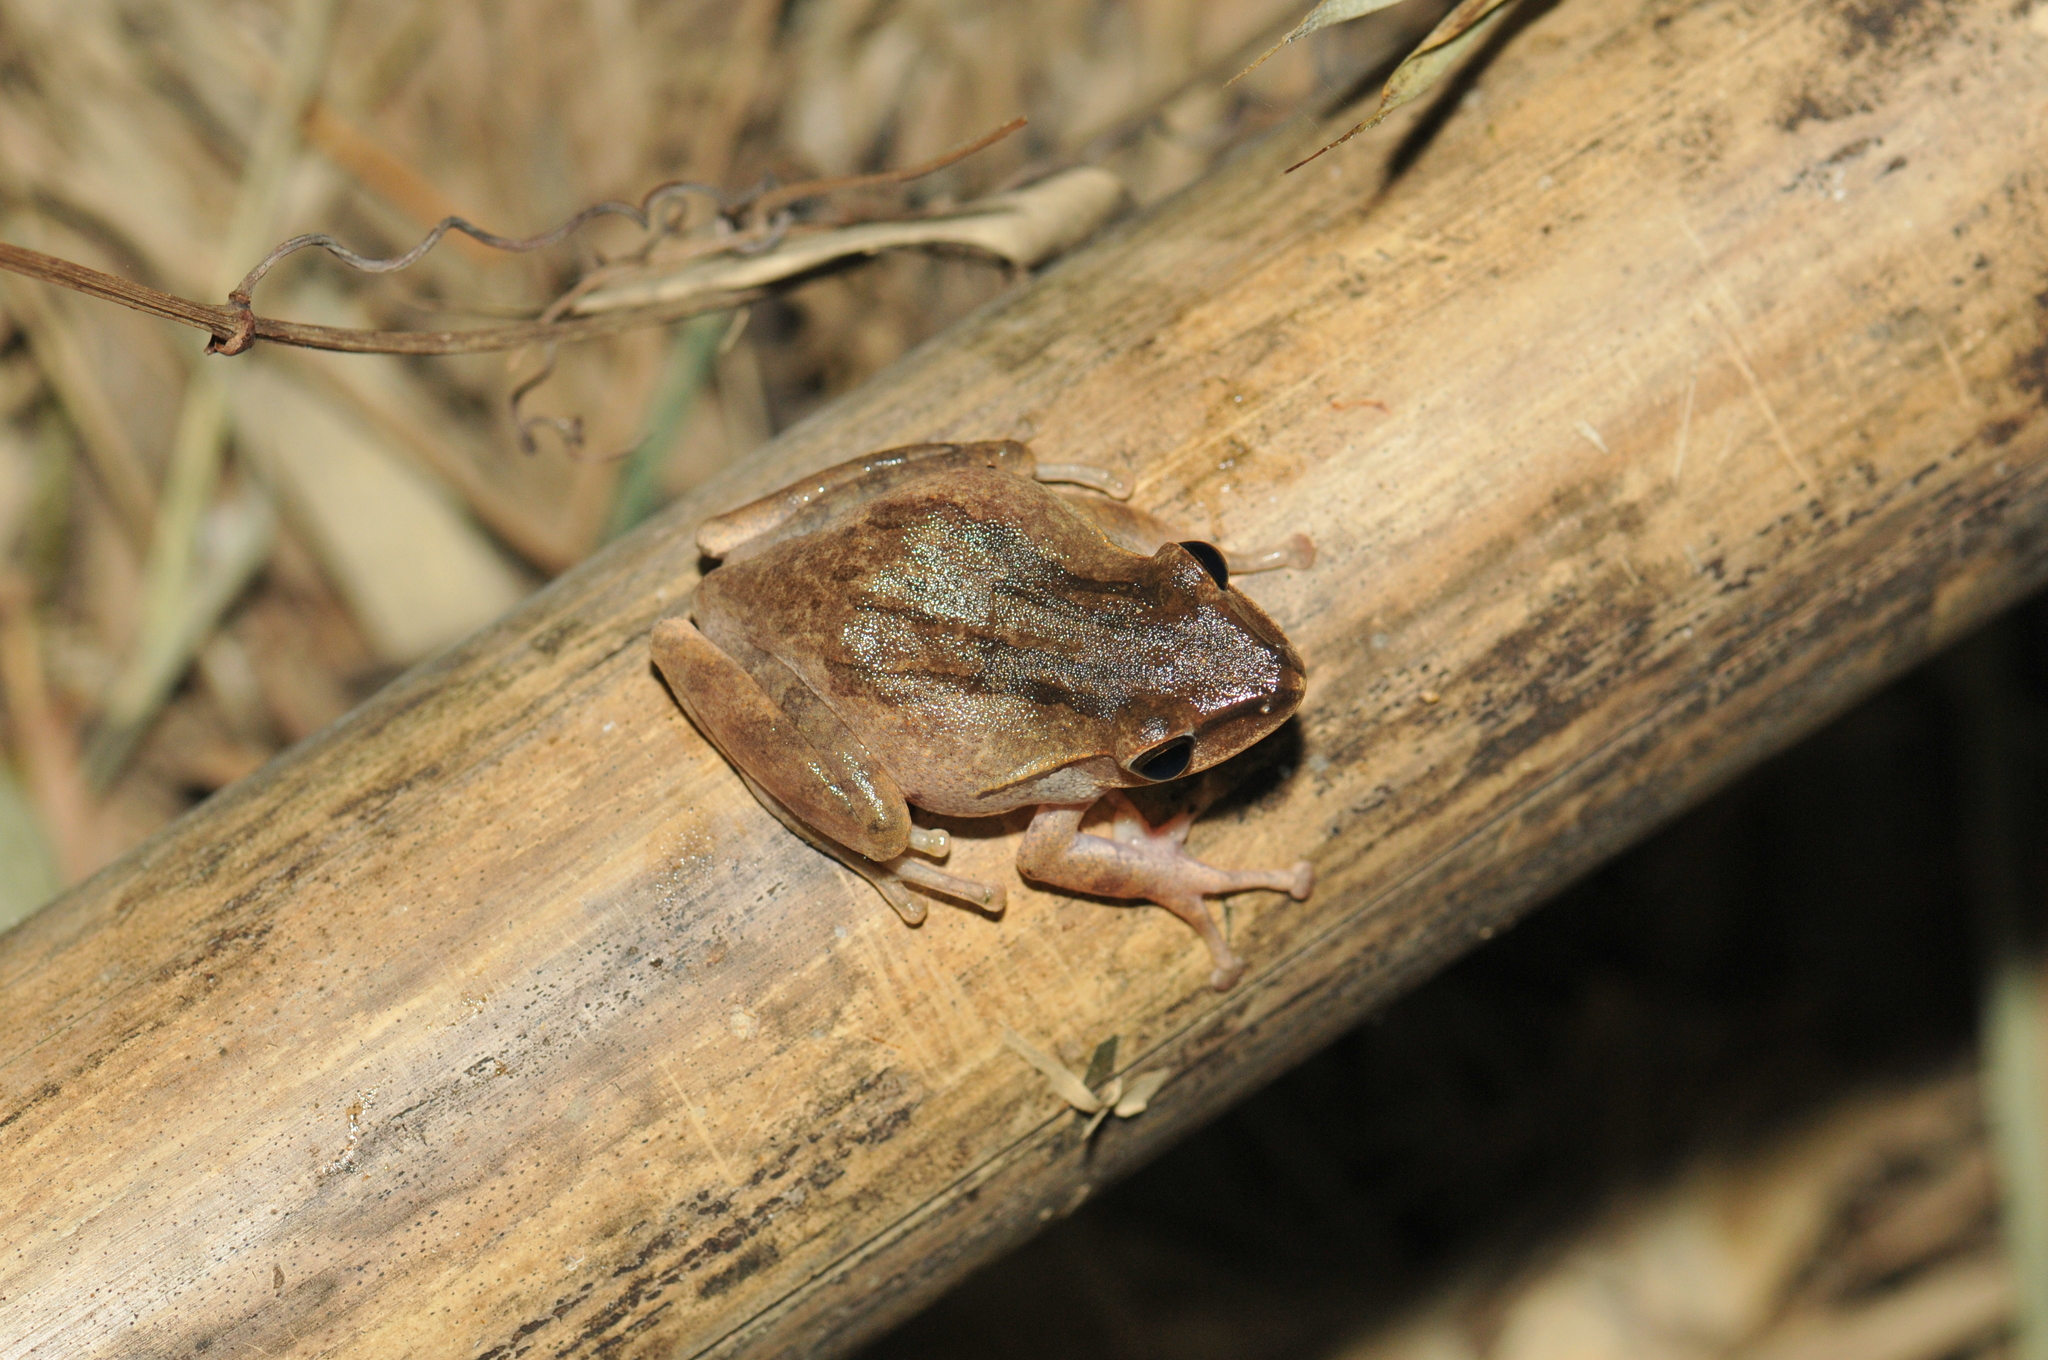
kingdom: Animalia
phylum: Chordata
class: Amphibia
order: Anura
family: Rhacophoridae
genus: Polypedates
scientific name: Polypedates braueri
